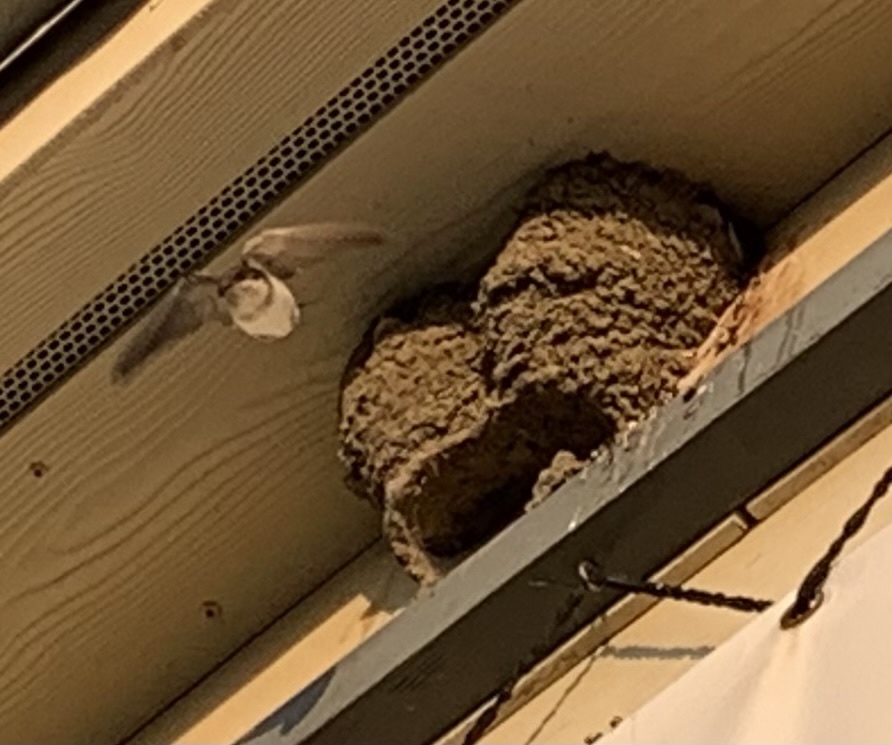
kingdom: Animalia
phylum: Chordata
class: Aves
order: Passeriformes
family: Hirundinidae
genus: Delichon
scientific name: Delichon urbicum
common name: Common house martin
